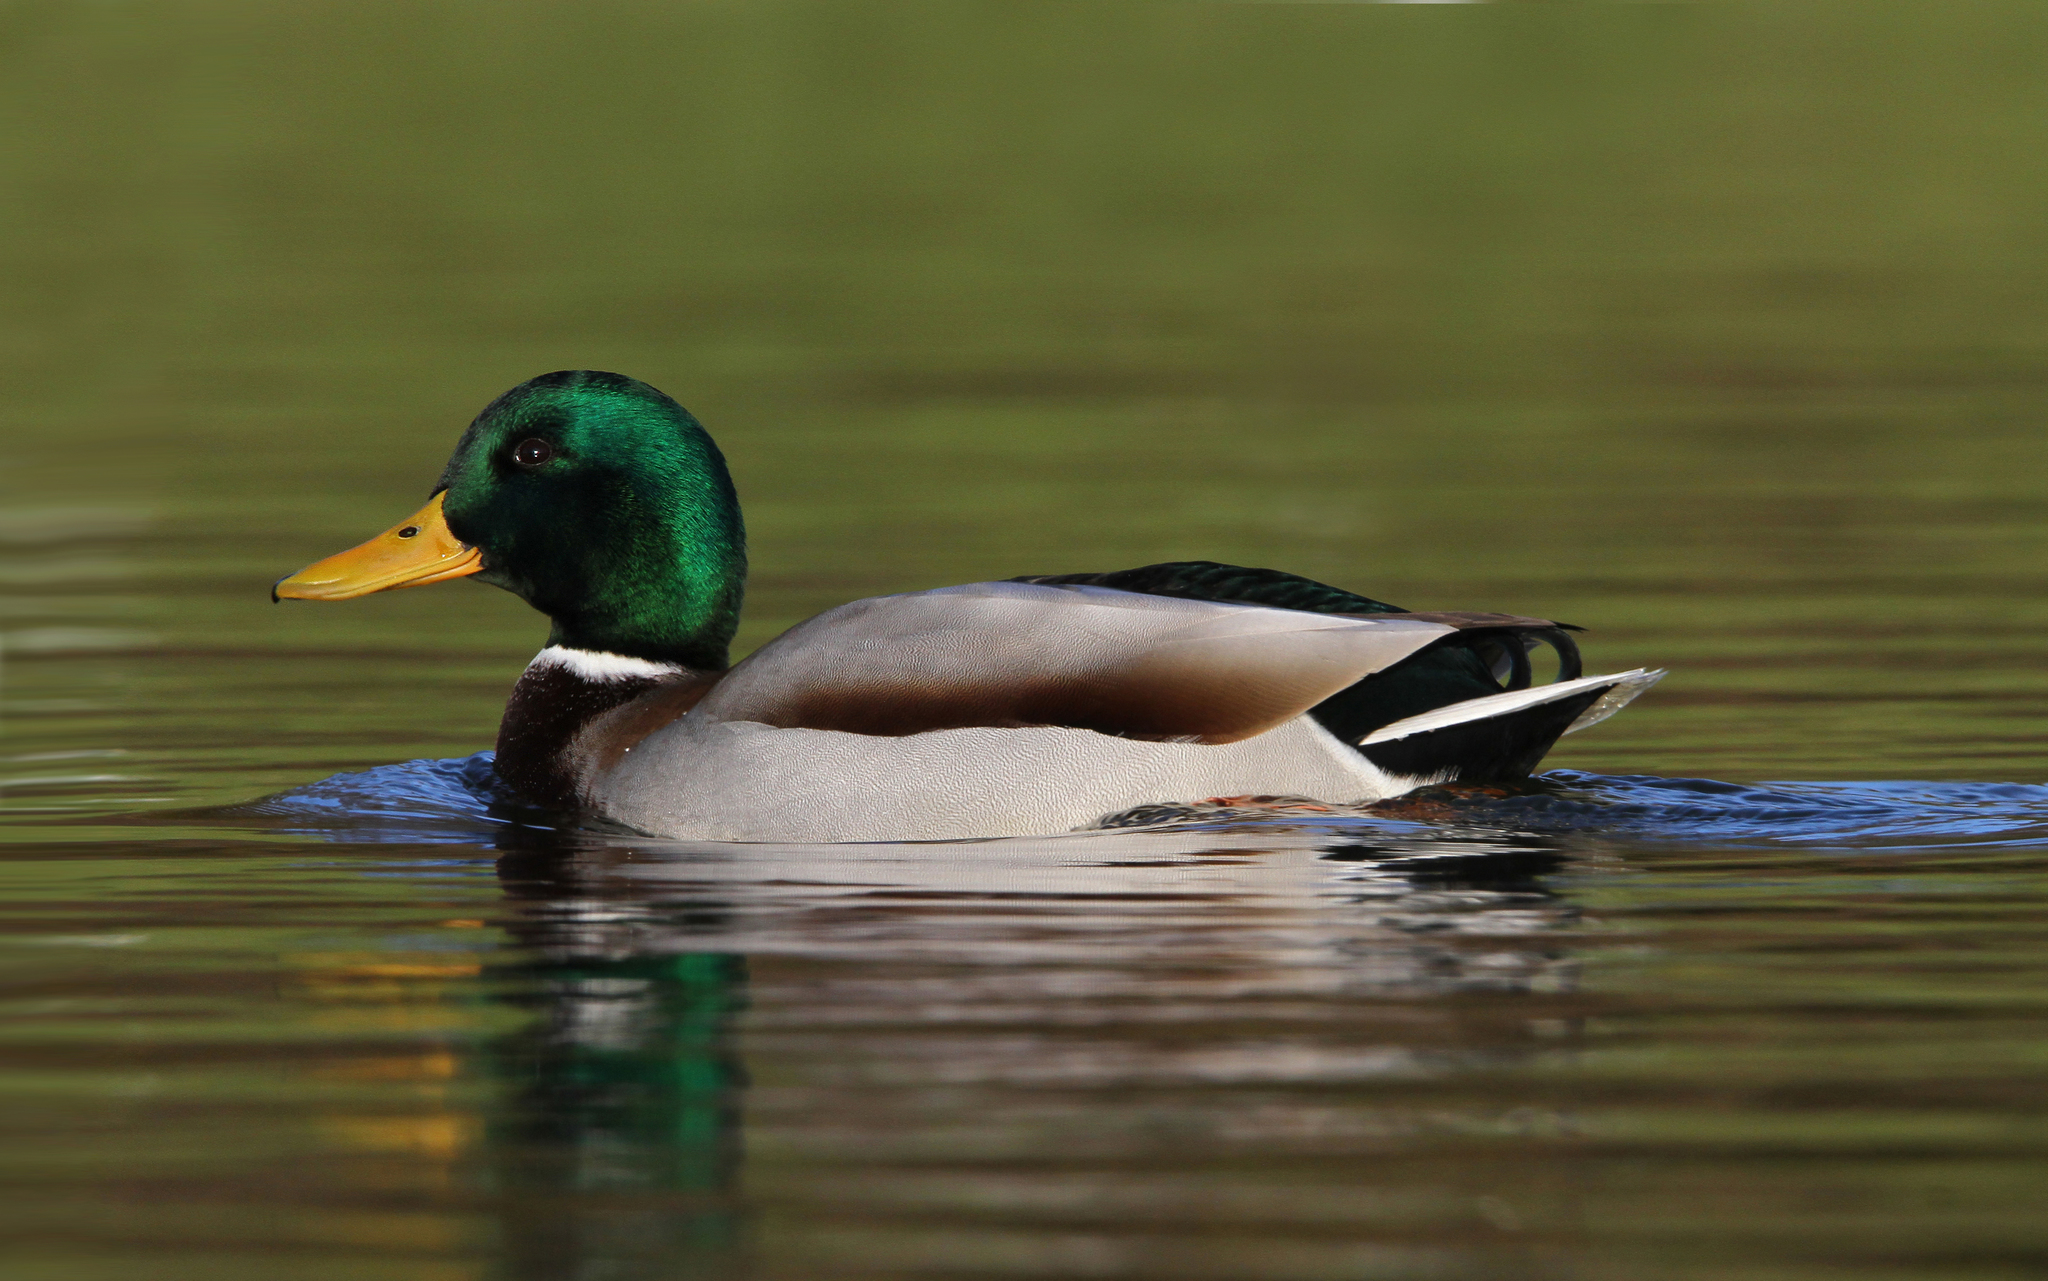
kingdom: Animalia
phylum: Chordata
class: Aves
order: Anseriformes
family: Anatidae
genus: Anas
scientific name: Anas platyrhynchos
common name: Mallard
